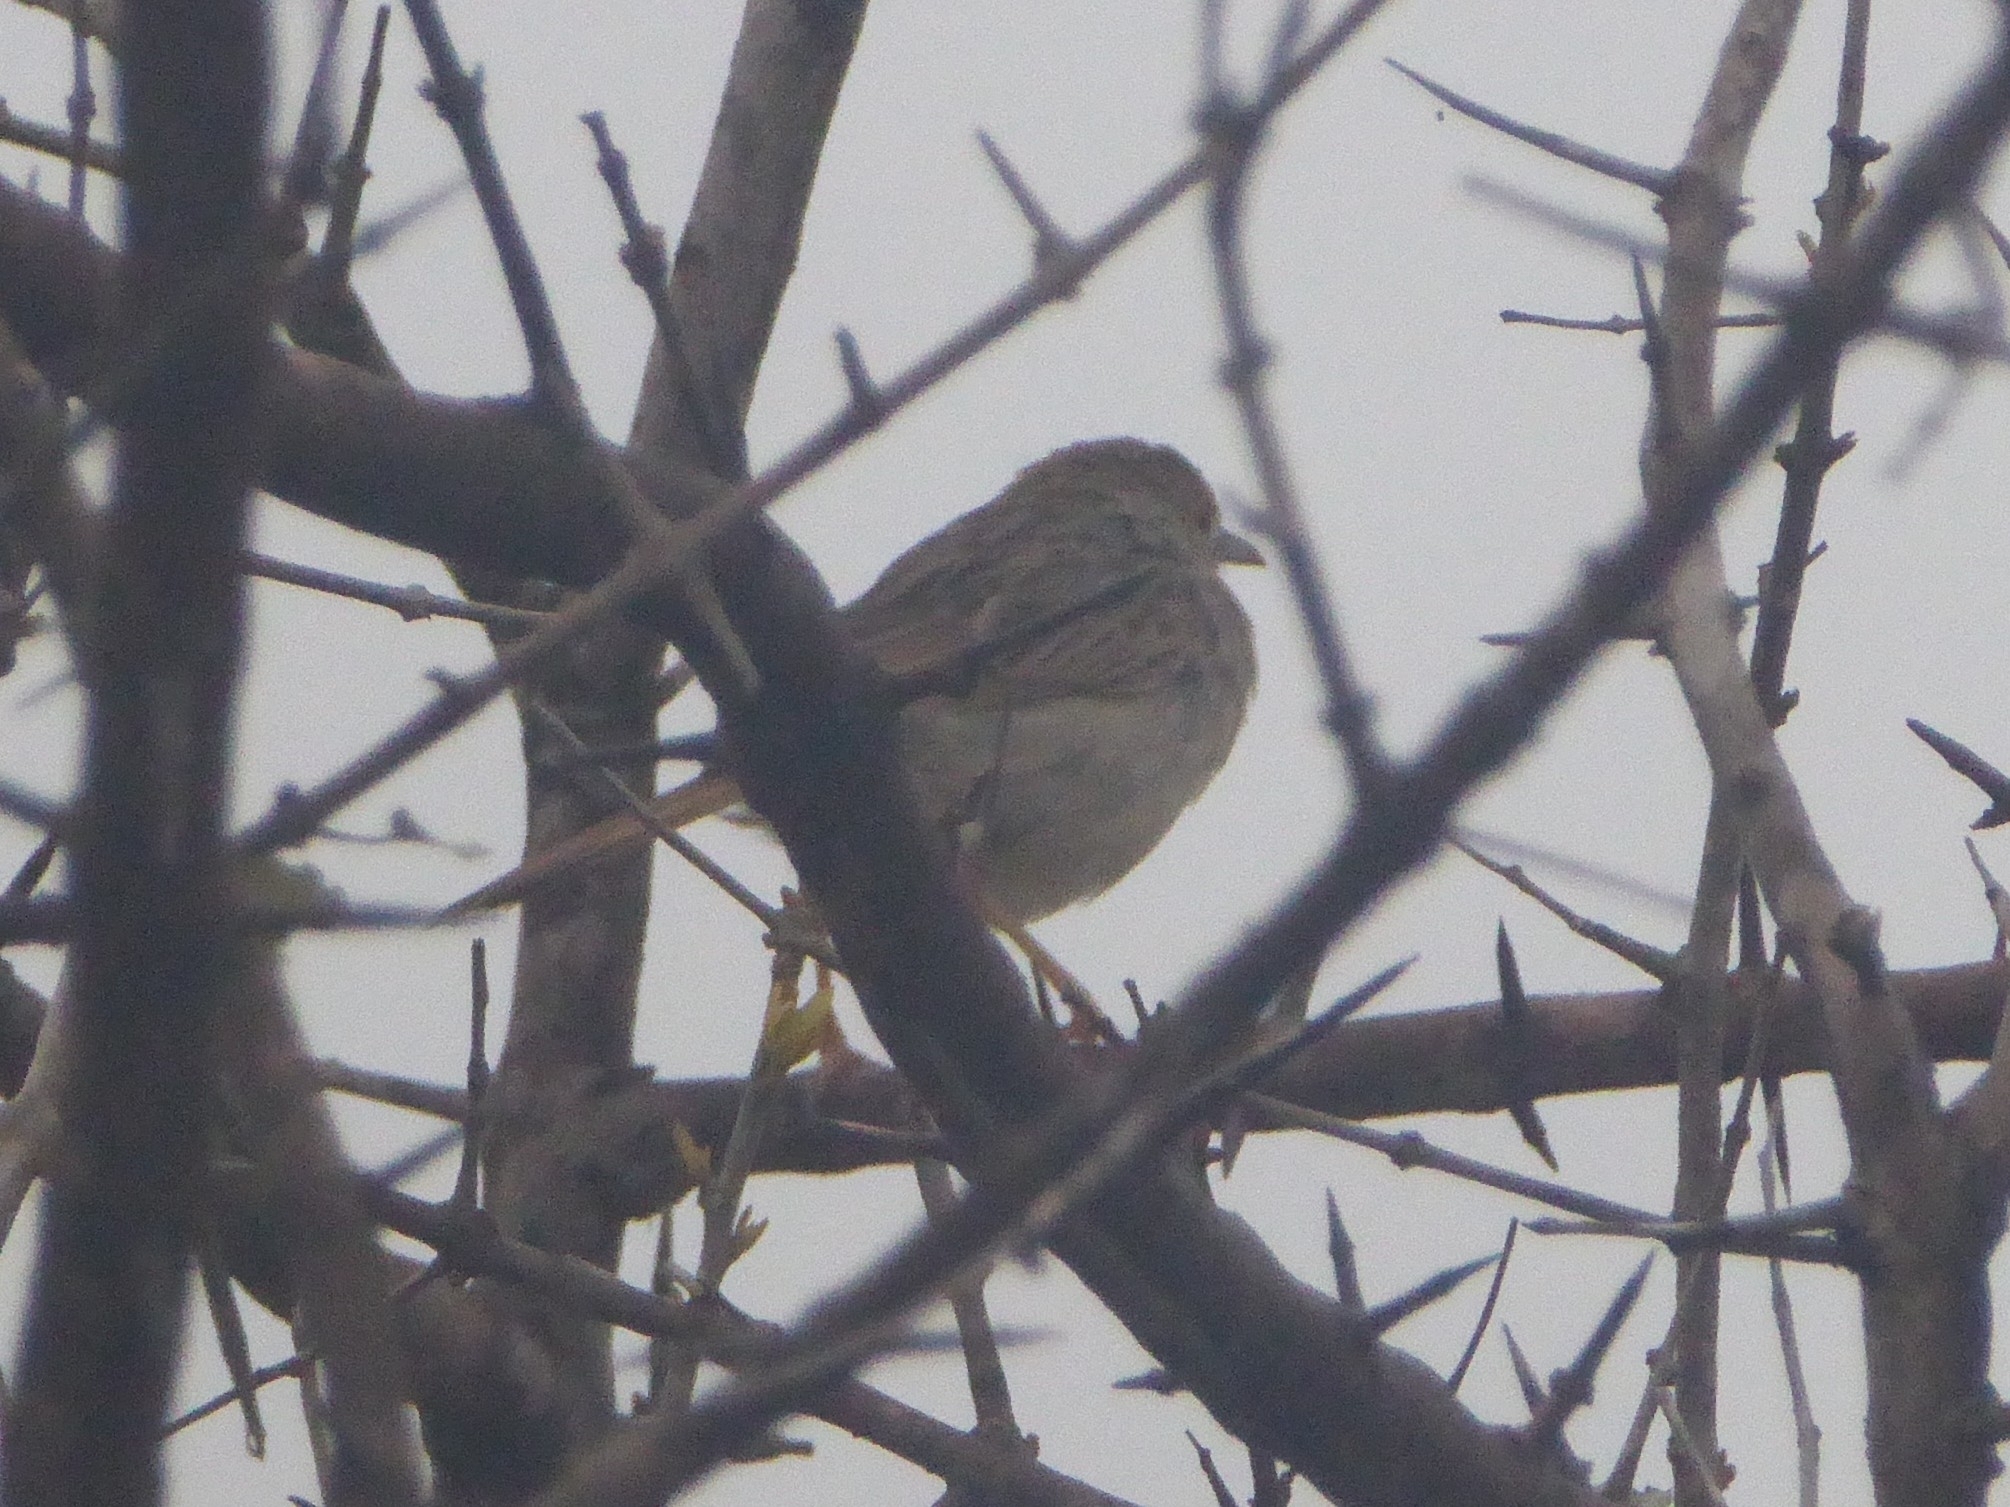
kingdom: Animalia
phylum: Chordata
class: Aves
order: Passeriformes
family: Cisticolidae
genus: Cisticola
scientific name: Cisticola chiniana
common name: Rattling cisticola
